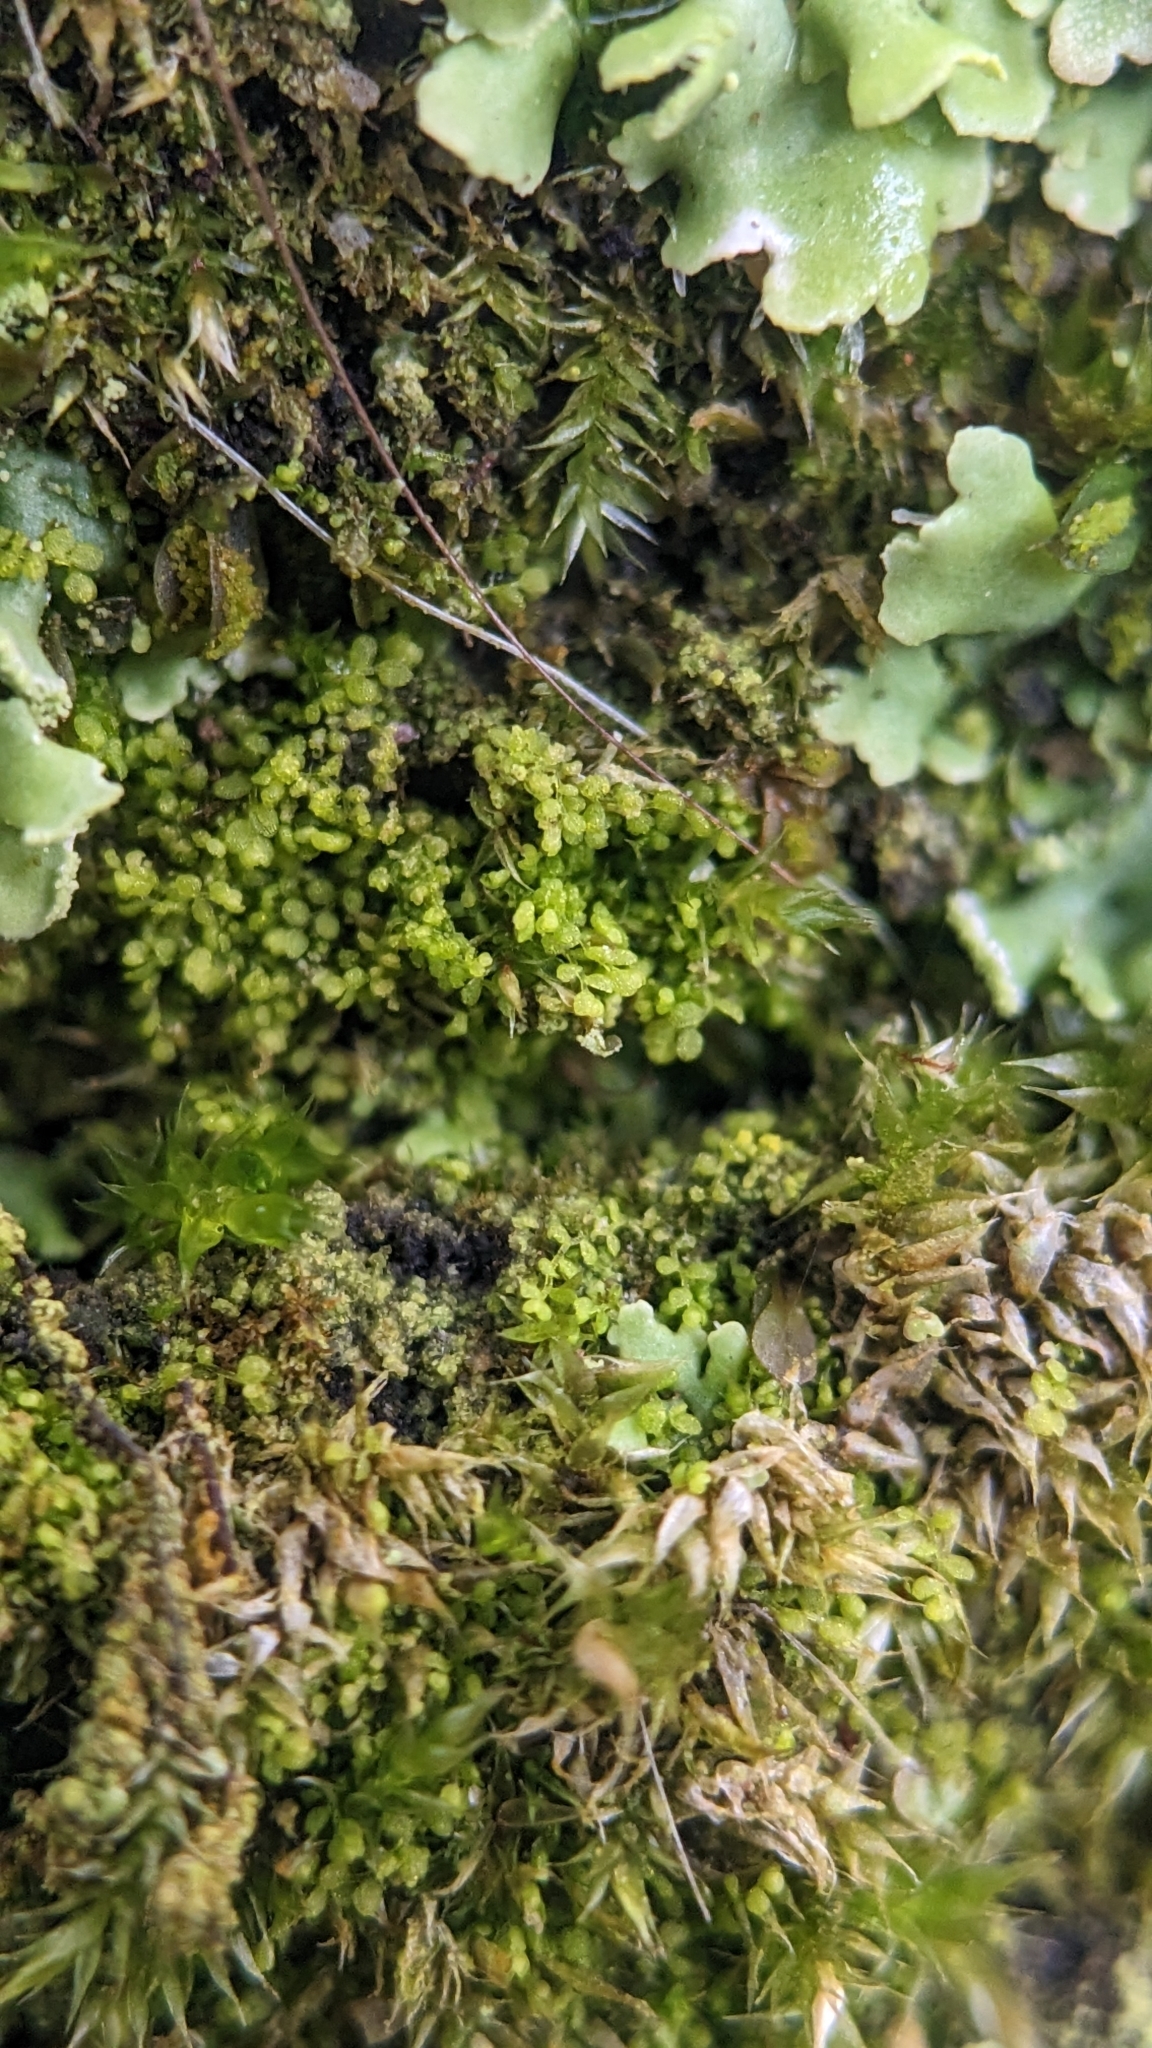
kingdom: Plantae
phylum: Marchantiophyta
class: Jungermanniopsida
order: Porellales
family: Lejeuneaceae
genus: Myriocoleopsis
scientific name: Myriocoleopsis minutissima
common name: Minute pouncewort
